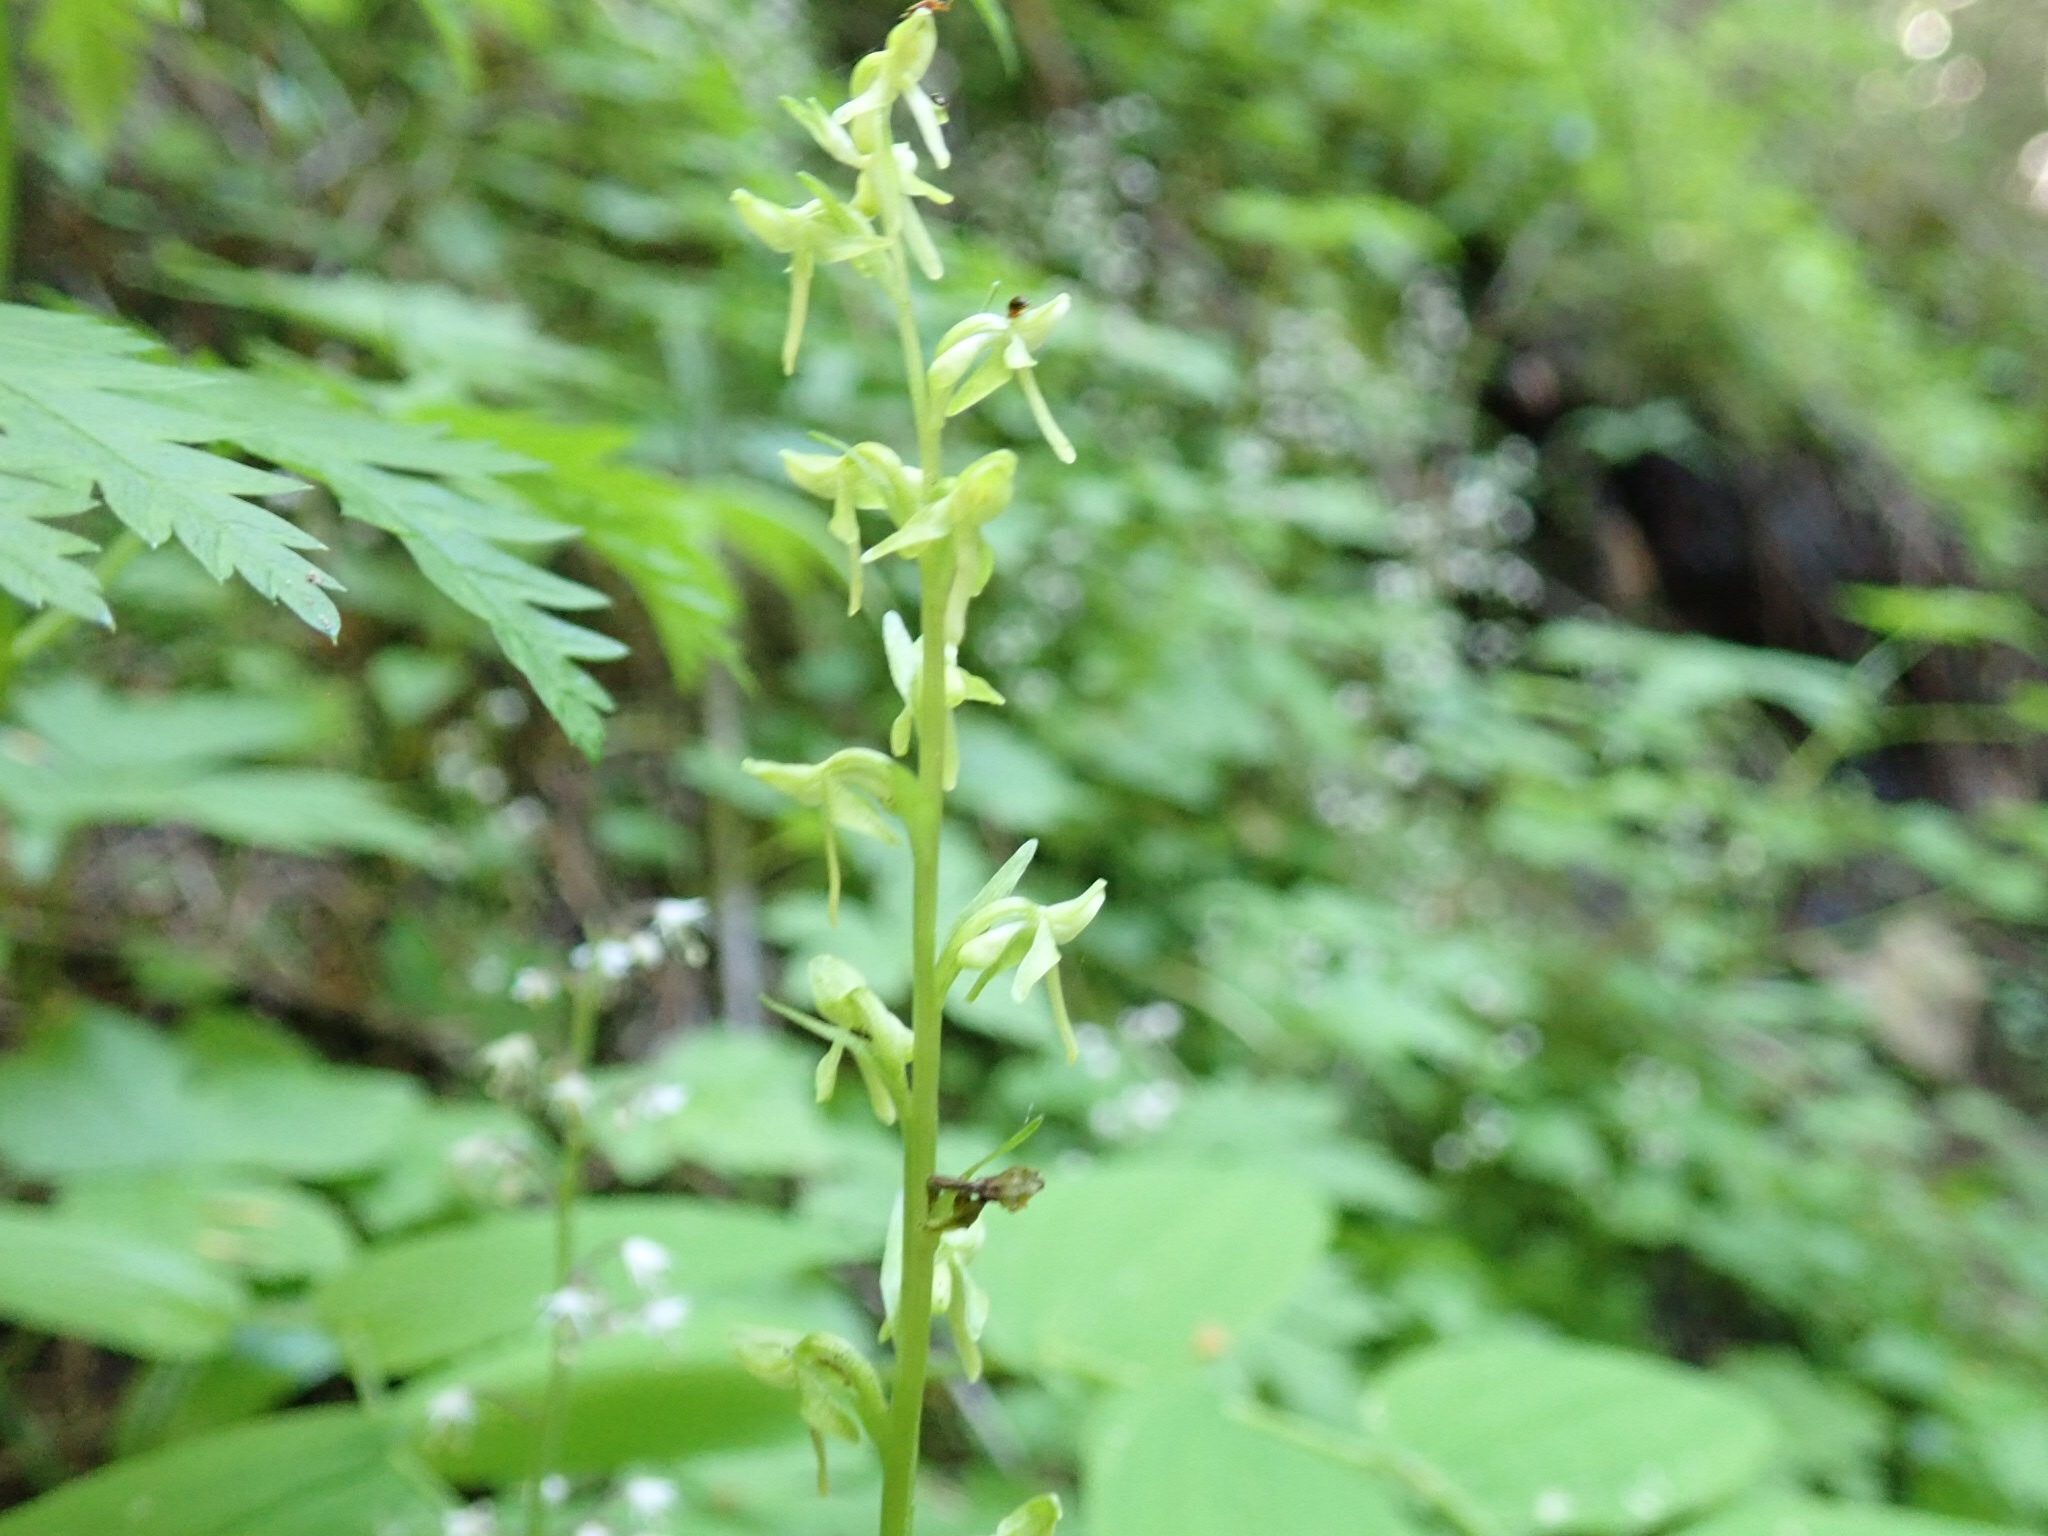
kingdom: Plantae
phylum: Tracheophyta
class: Liliopsida
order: Asparagales
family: Orchidaceae
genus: Platanthera
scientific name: Platanthera stricta
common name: Slender bog orchid
